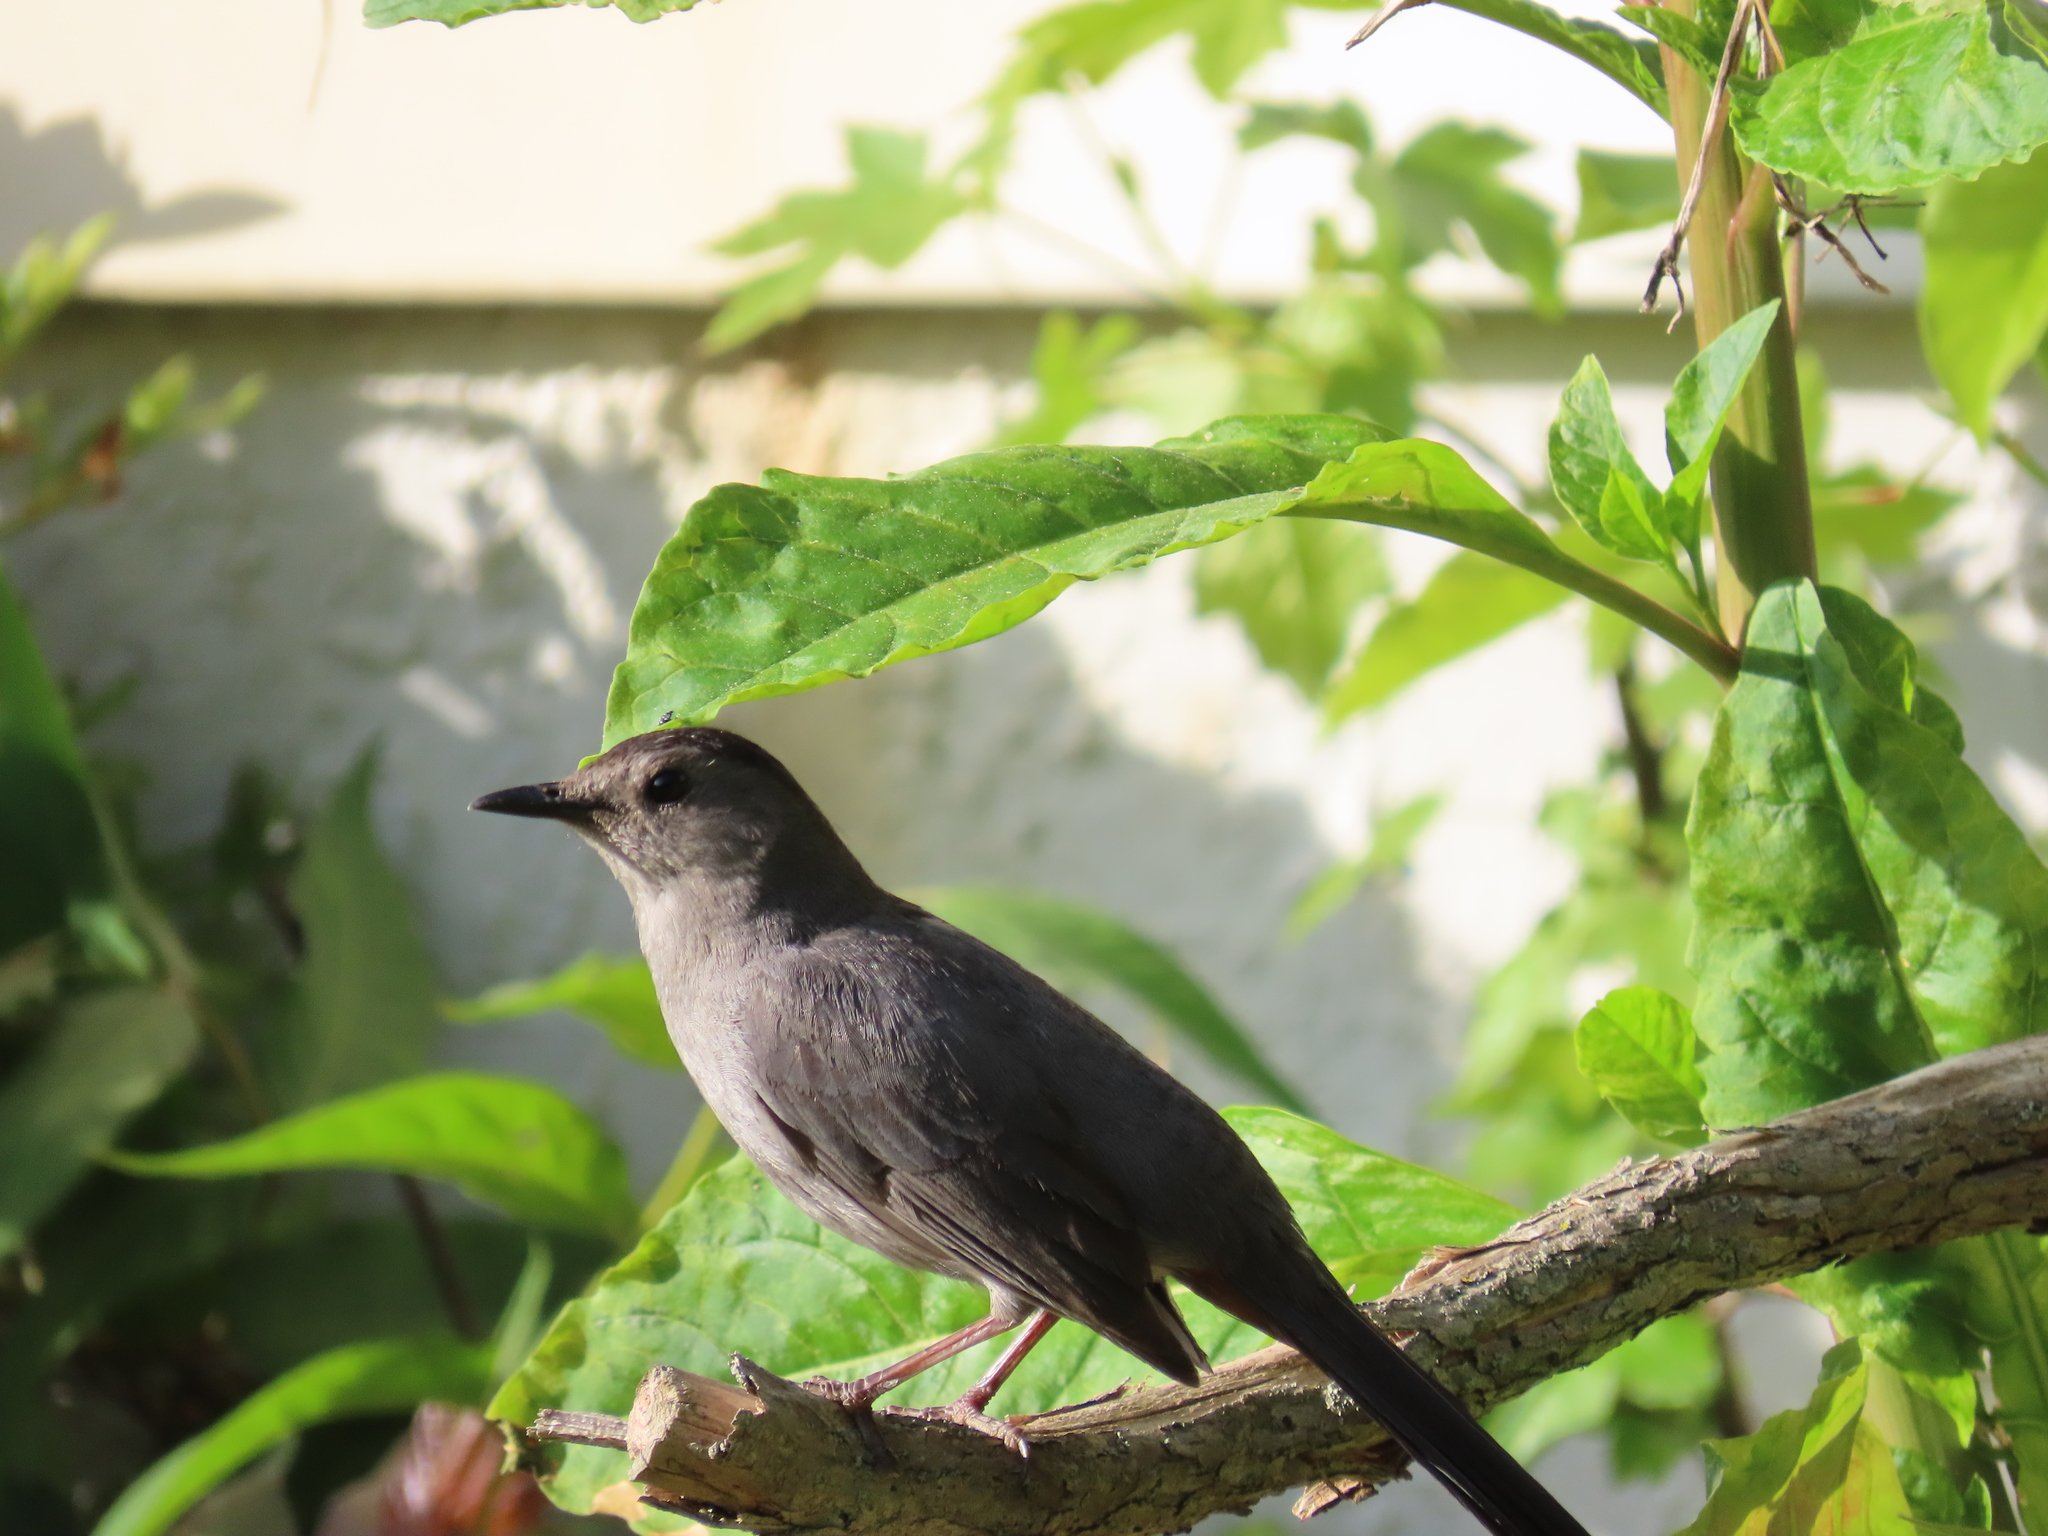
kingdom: Animalia
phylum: Chordata
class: Aves
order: Passeriformes
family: Mimidae
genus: Dumetella
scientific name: Dumetella carolinensis
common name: Gray catbird
